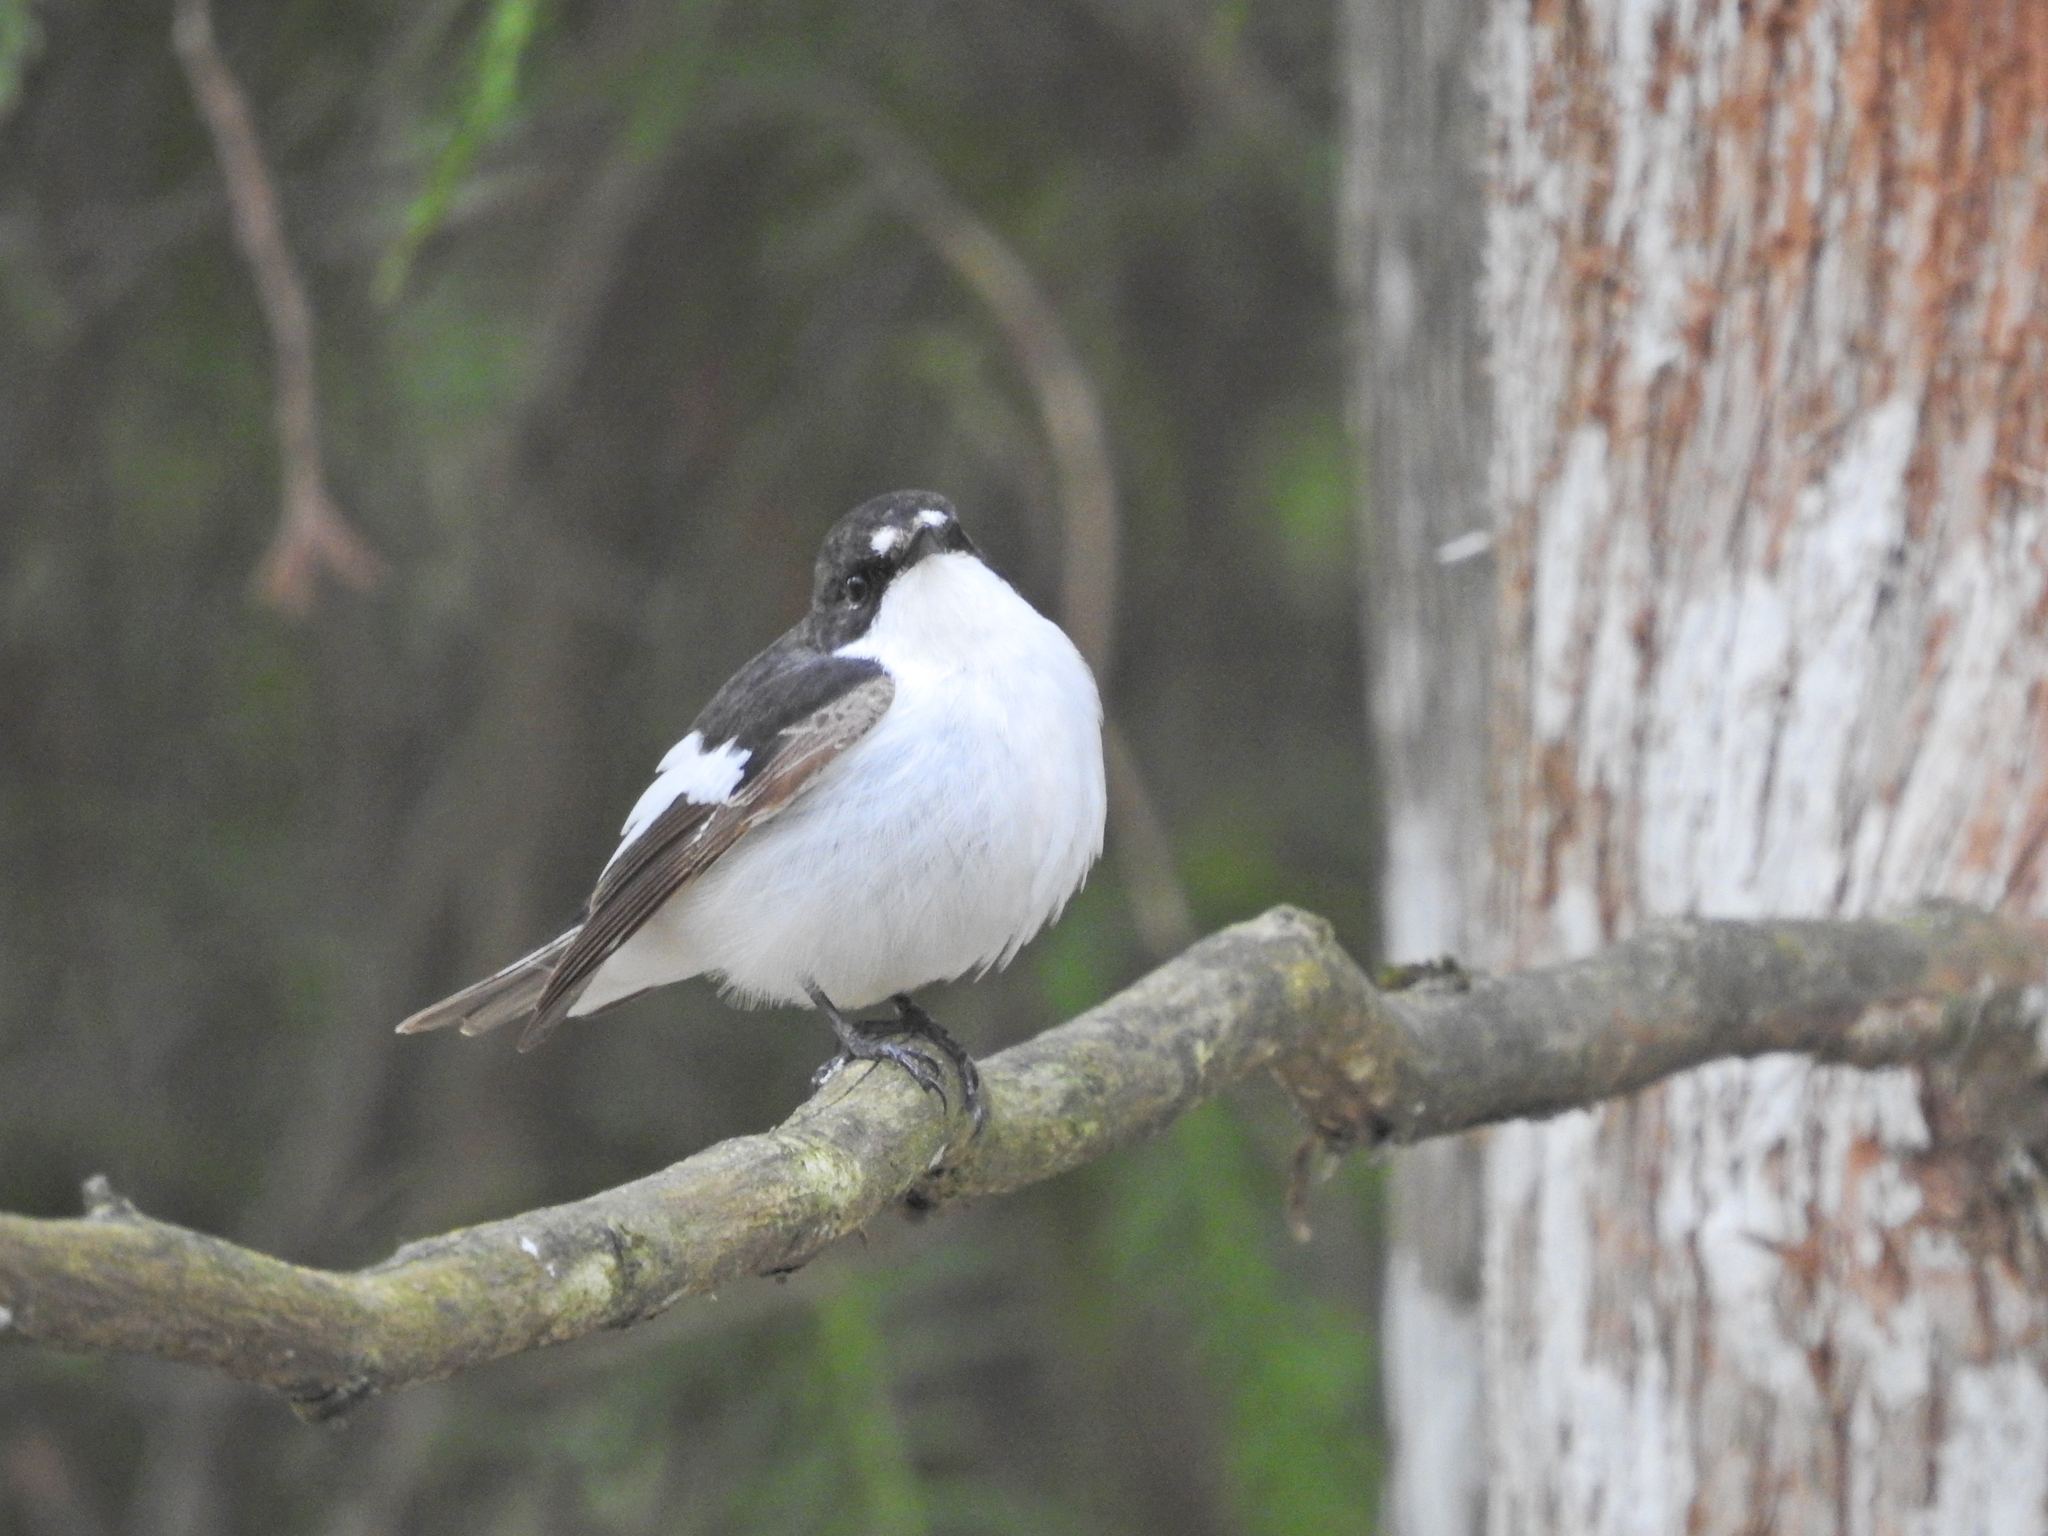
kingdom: Animalia
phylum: Chordata
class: Aves
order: Passeriformes
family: Muscicapidae
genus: Ficedula
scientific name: Ficedula hypoleuca
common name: European pied flycatcher
